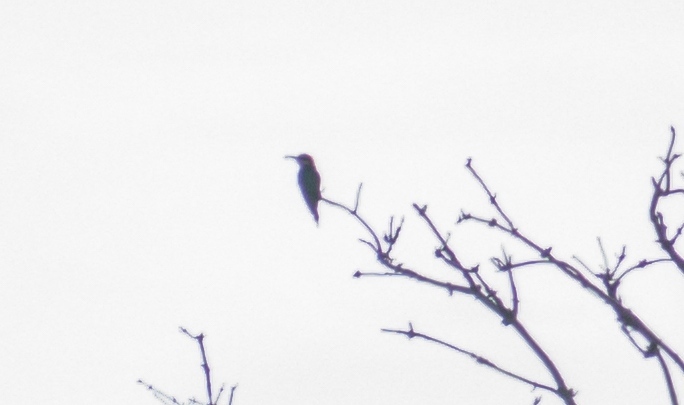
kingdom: Animalia
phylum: Chordata
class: Aves
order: Coraciiformes
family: Meropidae
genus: Merops
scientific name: Merops apiaster
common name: European bee-eater
